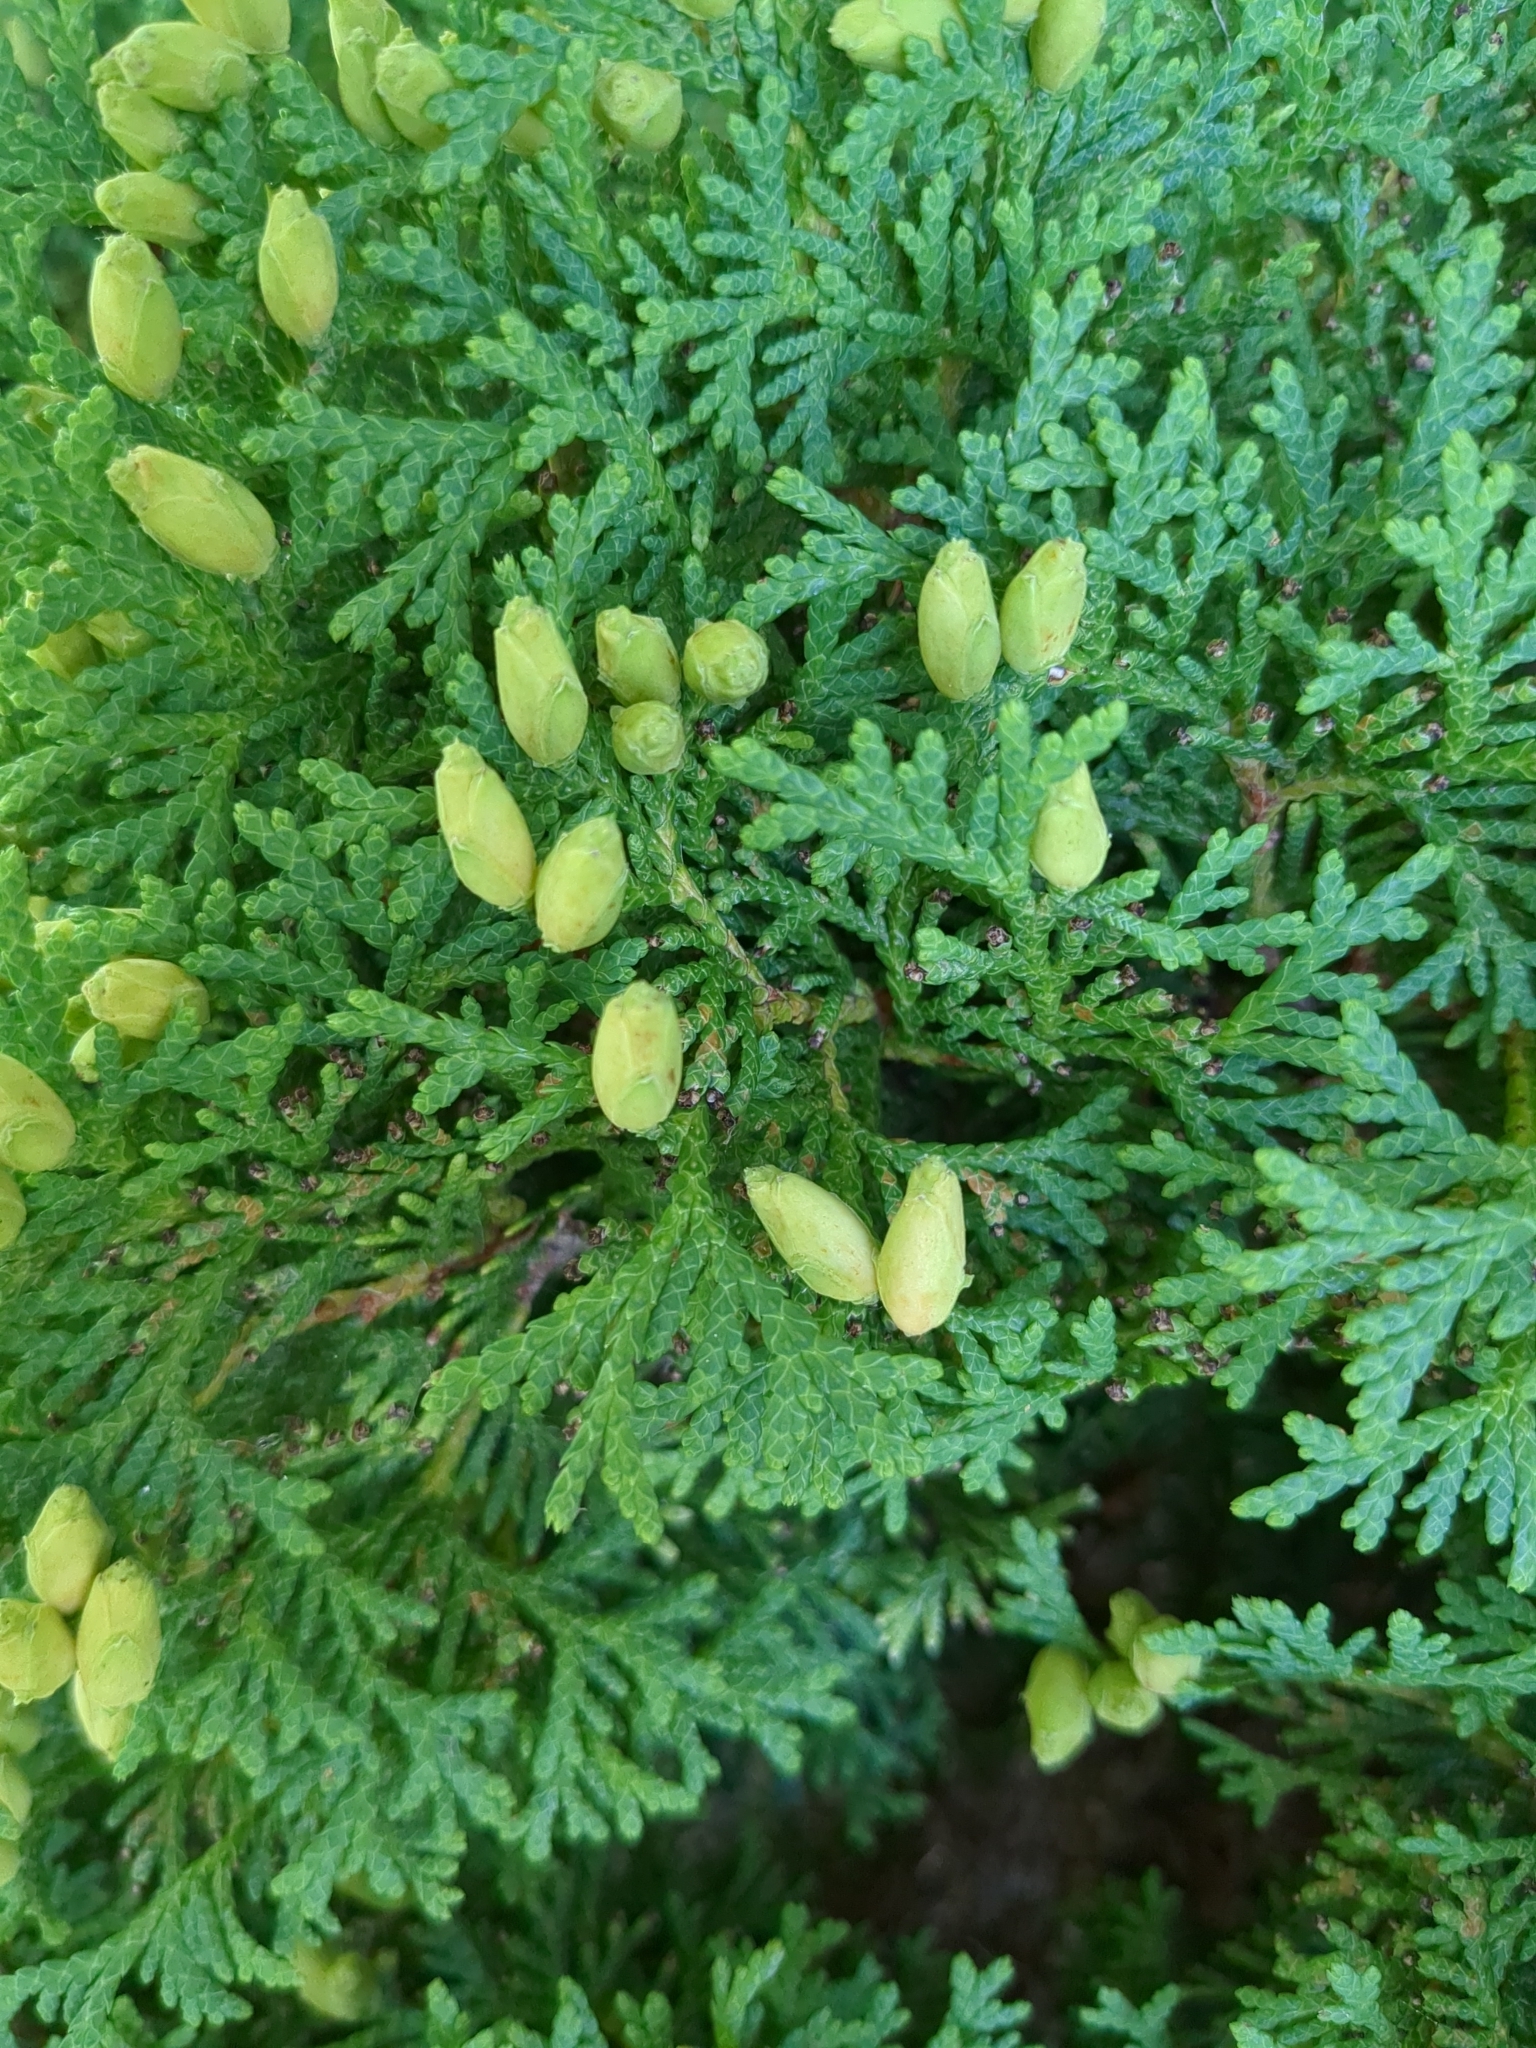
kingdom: Plantae
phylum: Tracheophyta
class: Pinopsida
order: Pinales
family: Cupressaceae
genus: Thuja
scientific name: Thuja occidentalis
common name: Northern white-cedar
